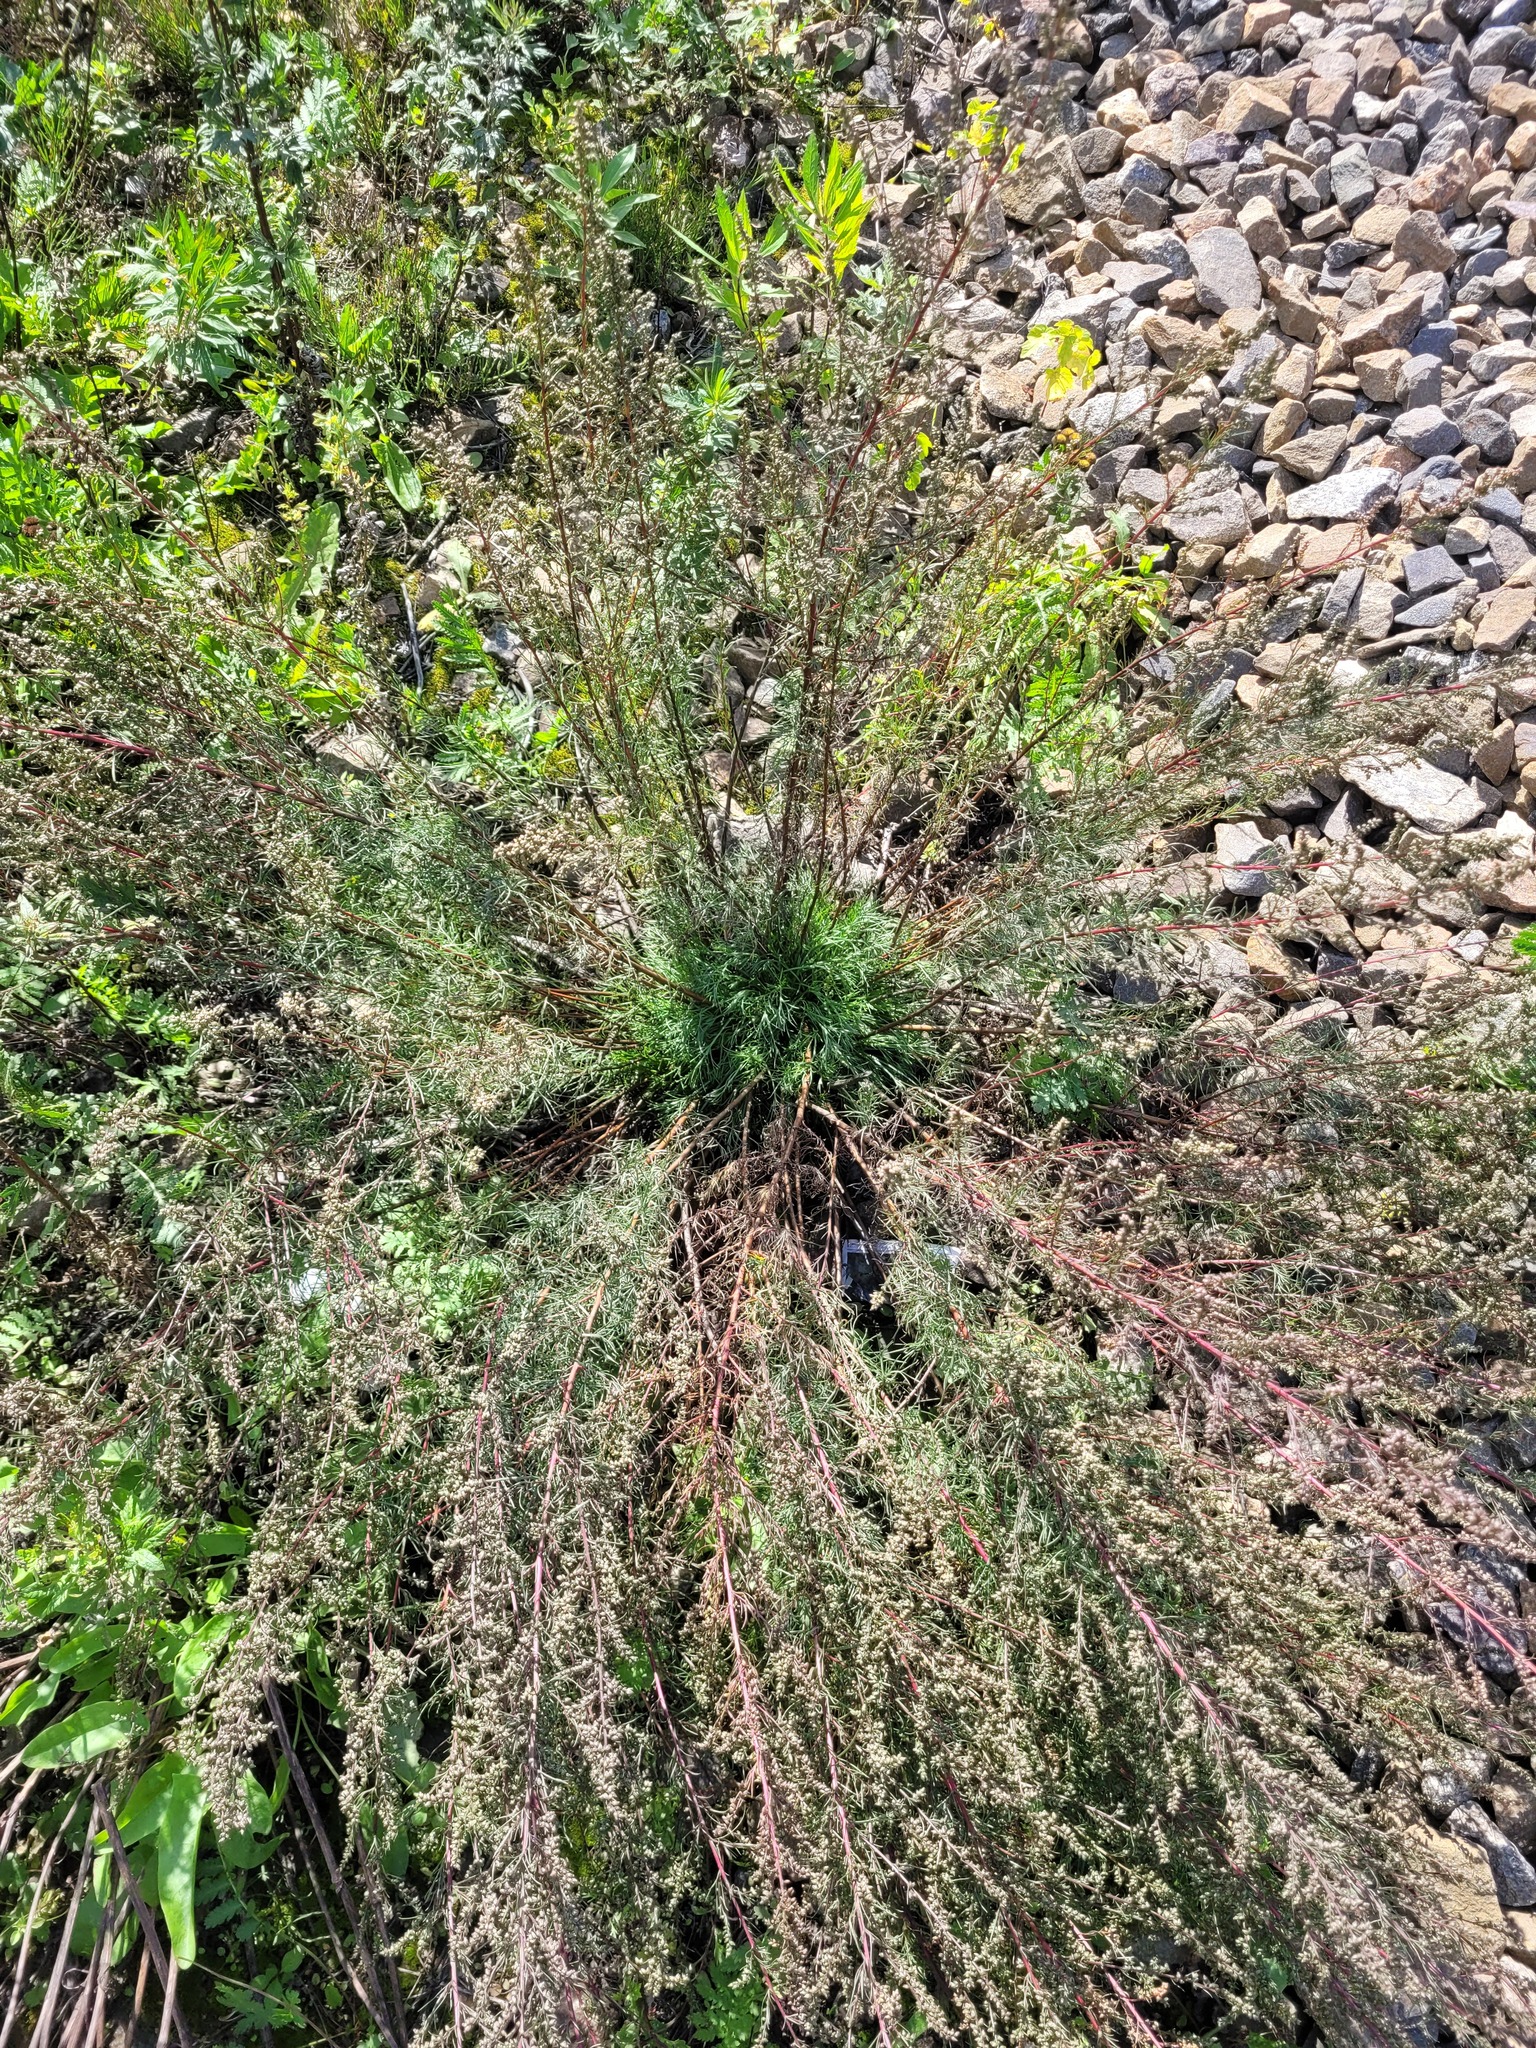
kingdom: Plantae
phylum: Tracheophyta
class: Magnoliopsida
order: Asterales
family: Asteraceae
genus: Artemisia
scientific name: Artemisia campestris
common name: Field wormwood
